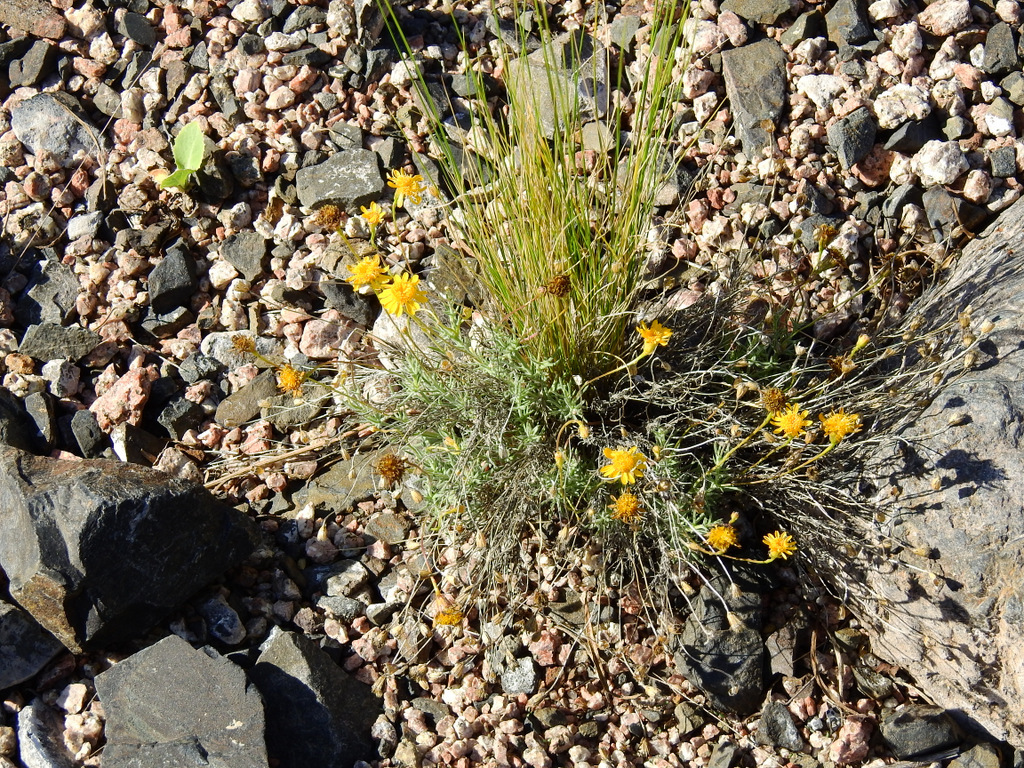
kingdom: Plantae
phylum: Tracheophyta
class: Magnoliopsida
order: Asterales
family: Asteraceae
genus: Thymophylla
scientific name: Thymophylla pentachaeta
